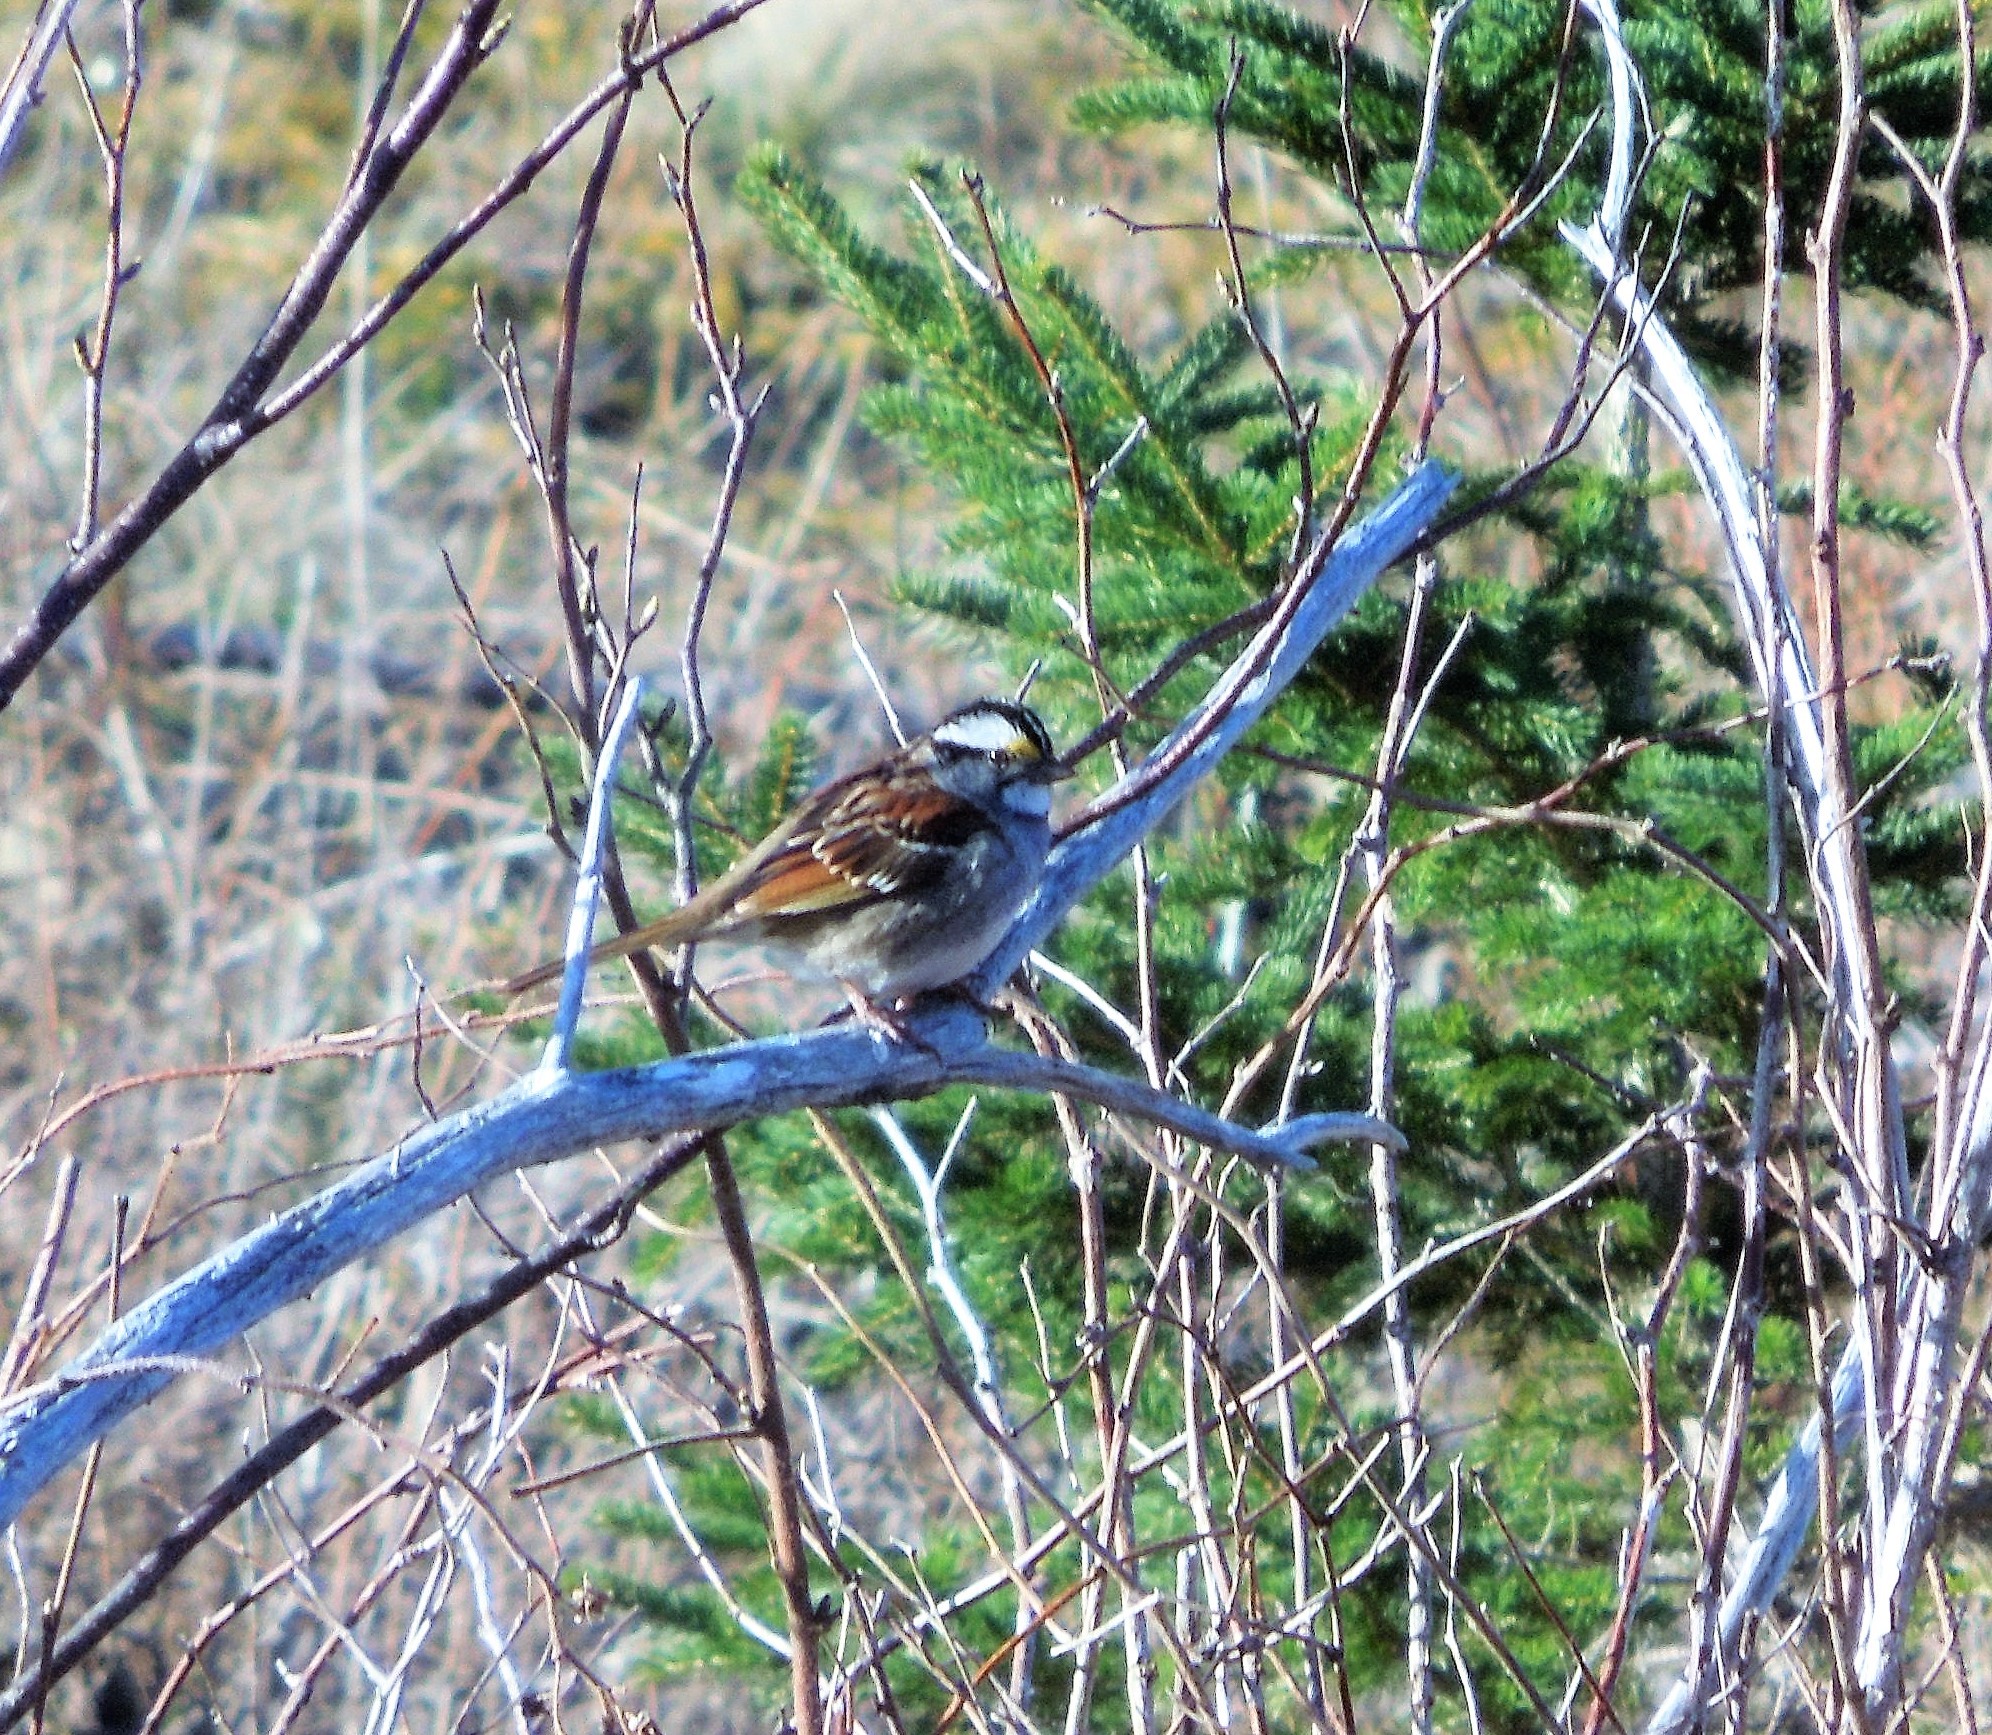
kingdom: Animalia
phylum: Chordata
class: Aves
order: Passeriformes
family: Passerellidae
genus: Zonotrichia
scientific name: Zonotrichia albicollis
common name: White-throated sparrow
